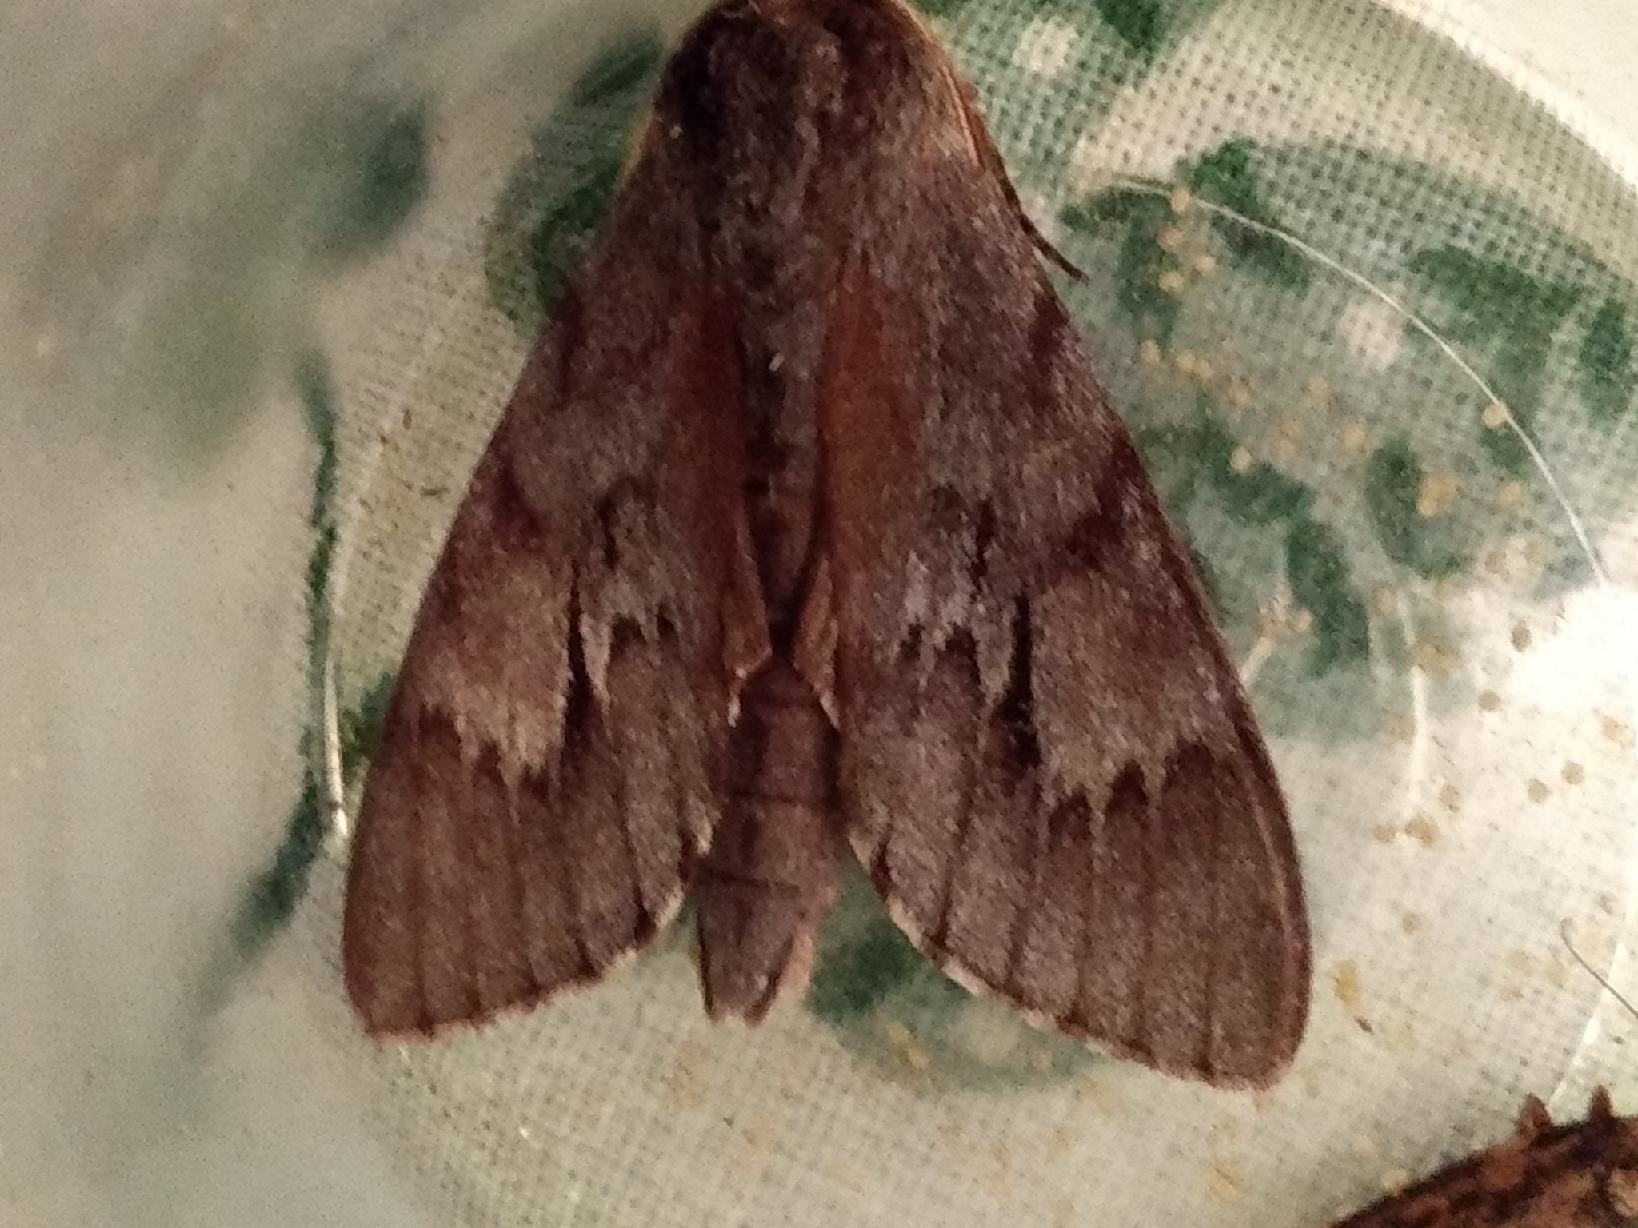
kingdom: Animalia
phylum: Arthropoda
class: Insecta
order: Lepidoptera
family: Sphingidae
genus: Lapara
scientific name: Lapara coniferarum
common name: Southern pine sphinx
